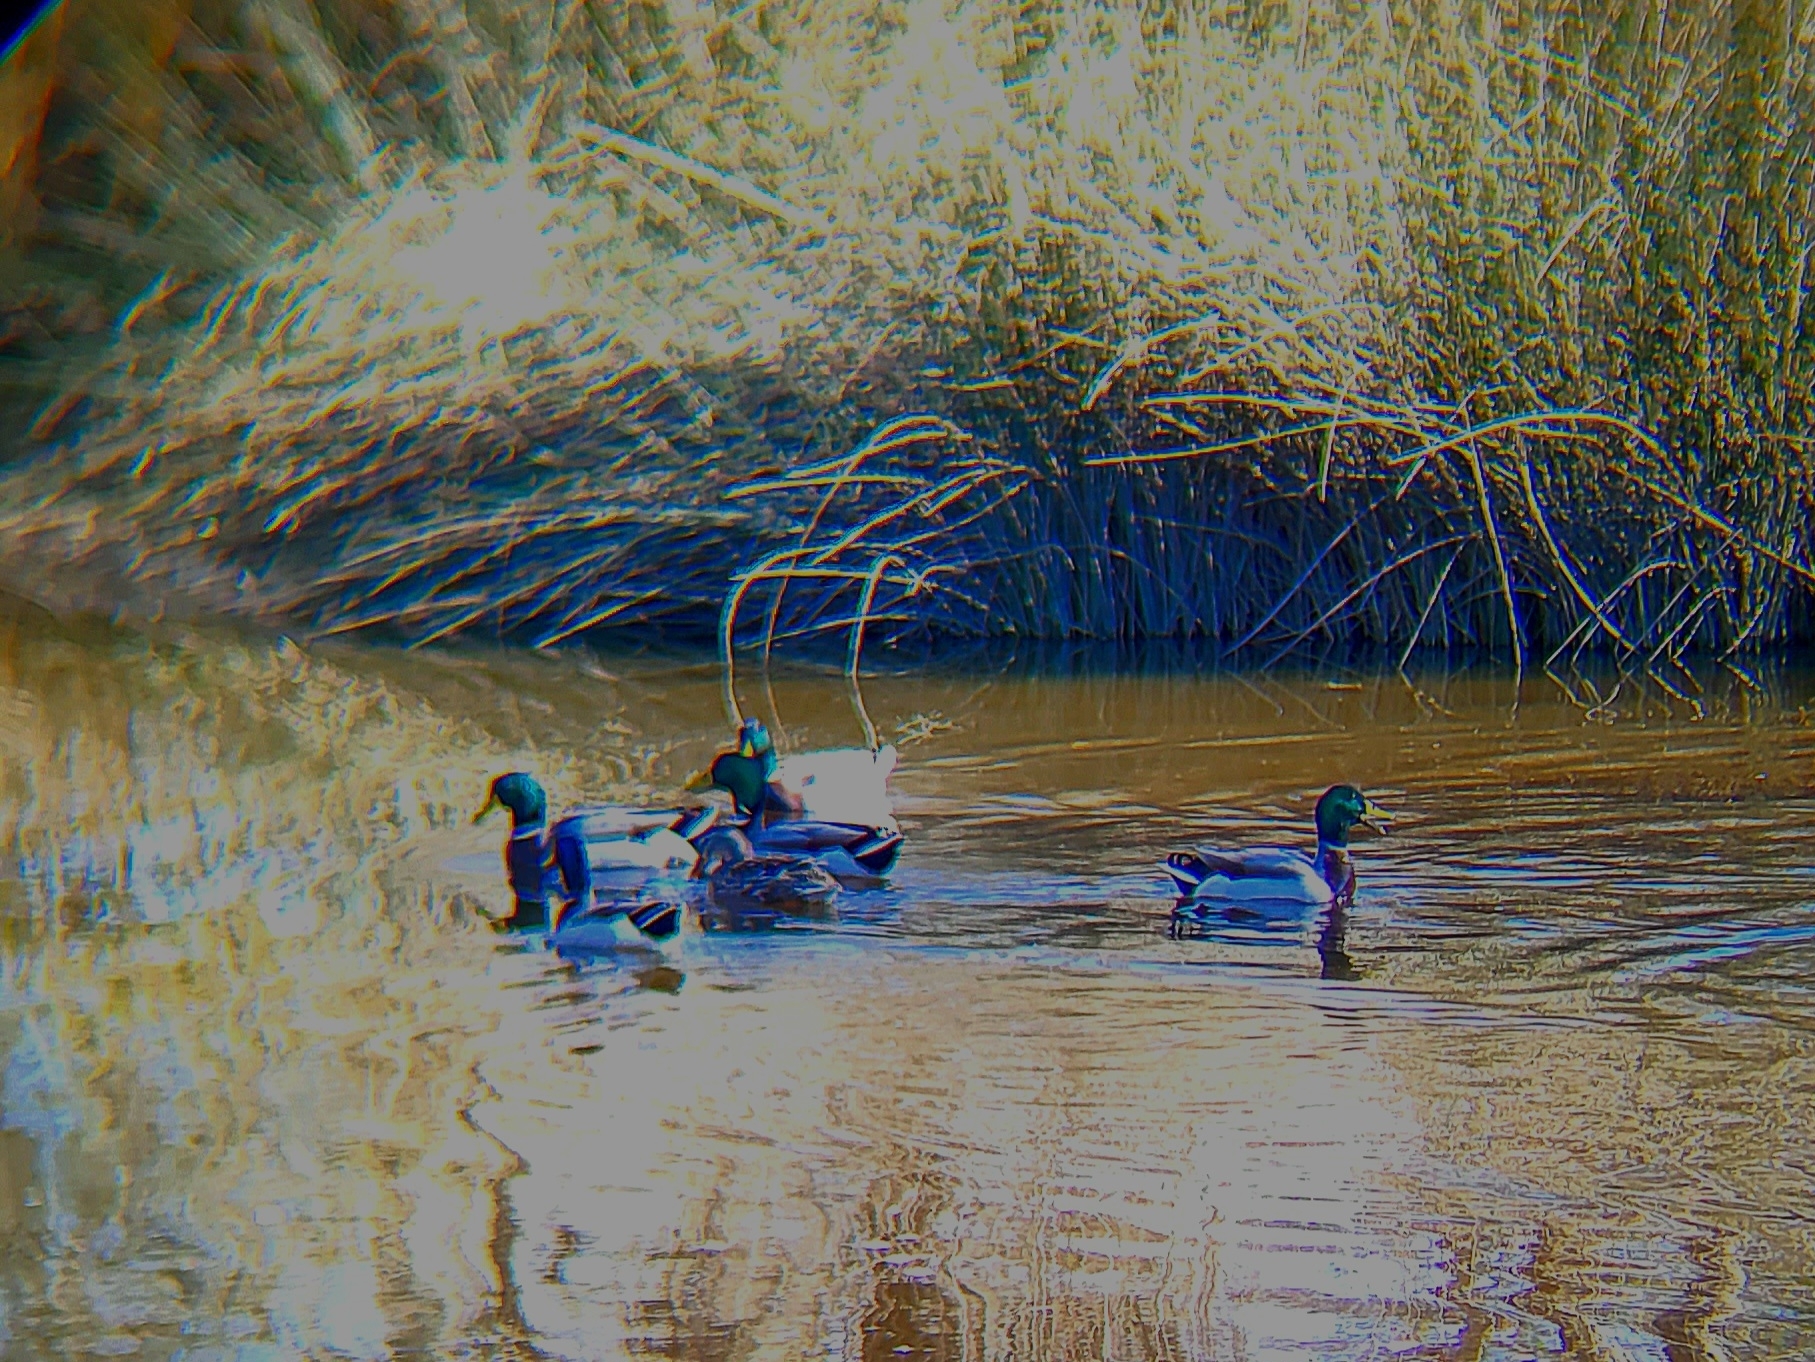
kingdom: Animalia
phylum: Chordata
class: Aves
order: Anseriformes
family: Anatidae
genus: Anas
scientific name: Anas platyrhynchos
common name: Mallard
